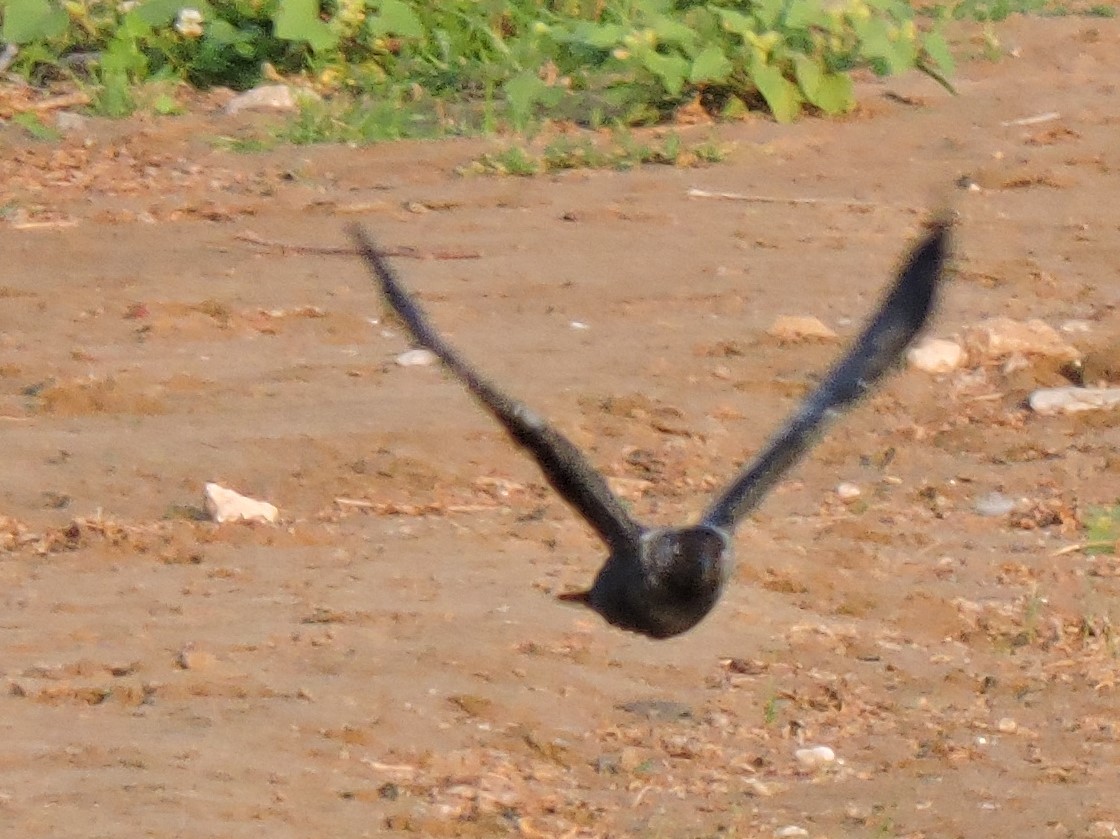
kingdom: Animalia
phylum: Chordata
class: Aves
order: Passeriformes
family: Corvidae
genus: Coloeus
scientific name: Coloeus monedula
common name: Western jackdaw
